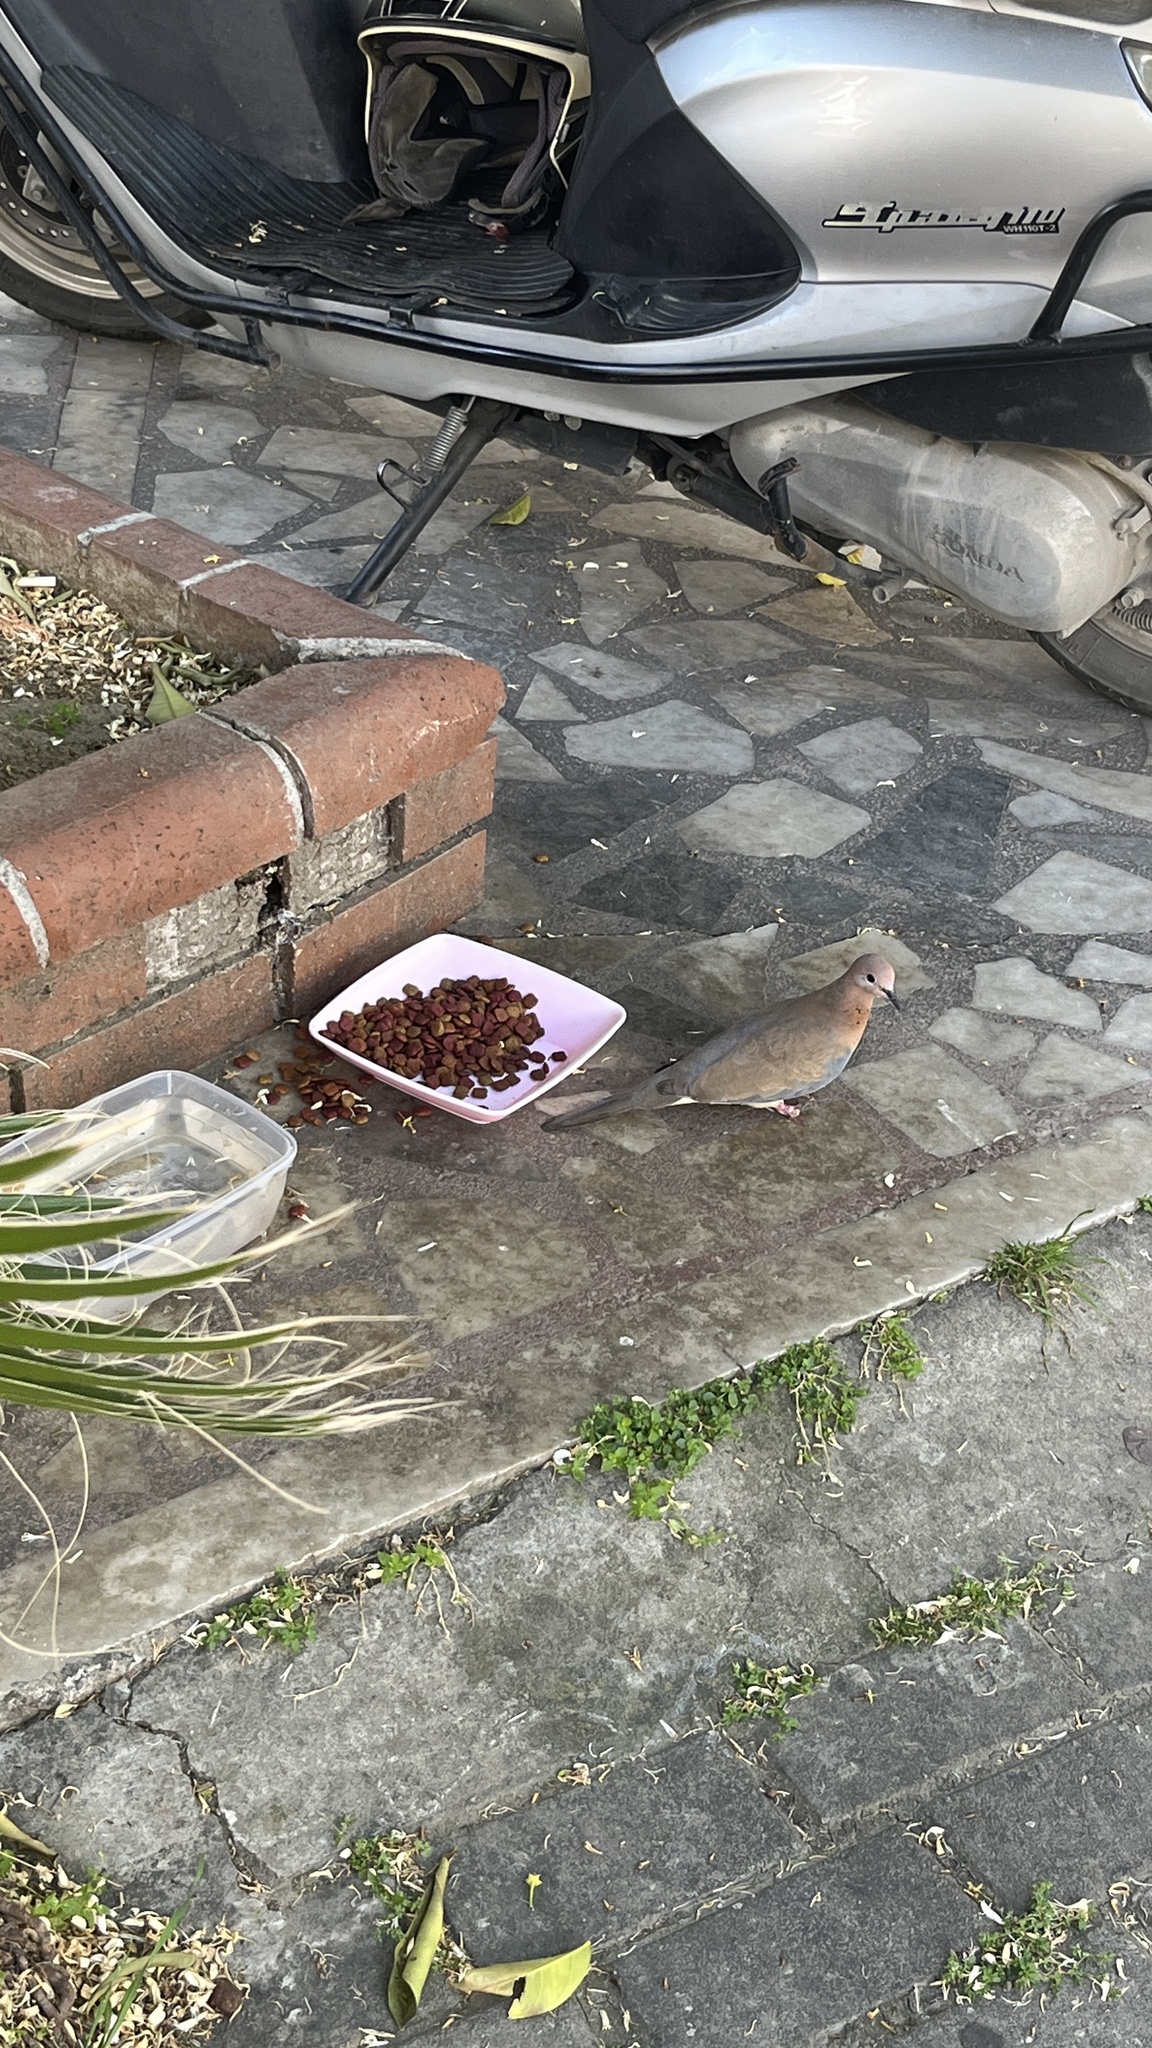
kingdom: Animalia
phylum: Chordata
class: Aves
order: Columbiformes
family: Columbidae
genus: Spilopelia
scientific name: Spilopelia senegalensis
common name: Laughing dove
